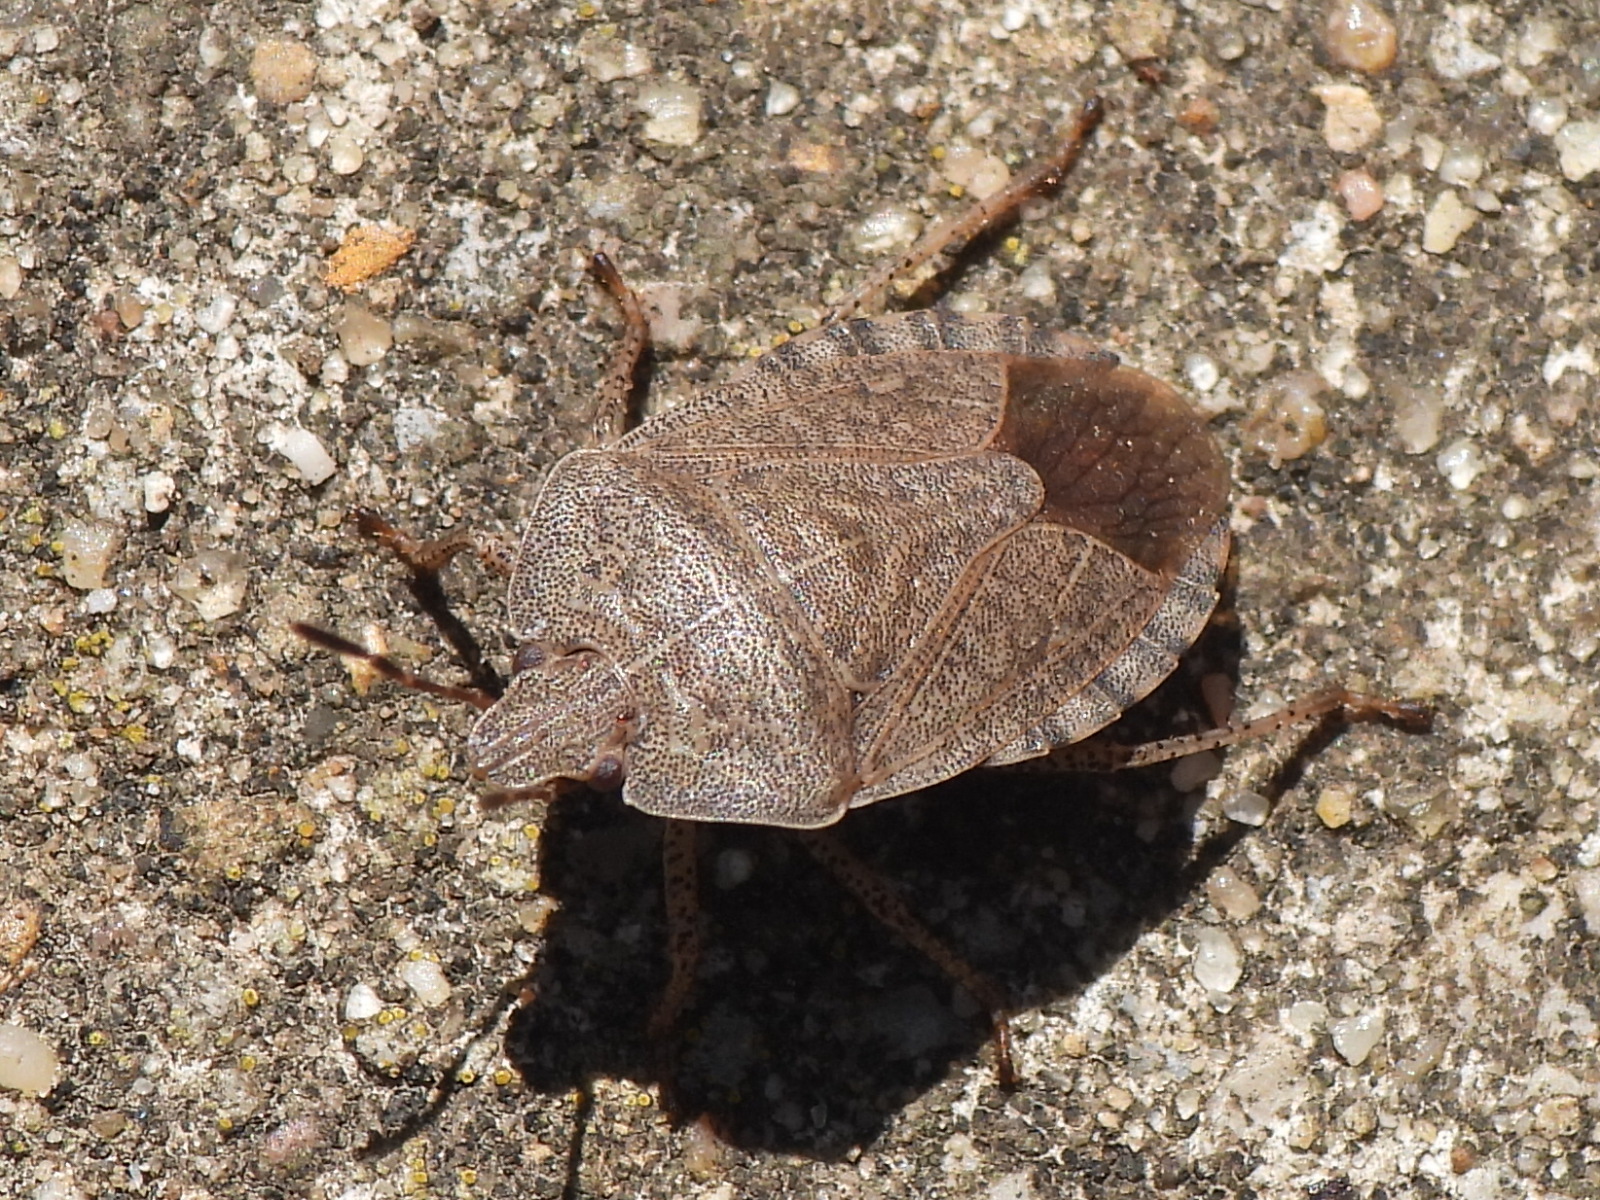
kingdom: Animalia
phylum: Arthropoda
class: Insecta
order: Hemiptera
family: Pentatomidae
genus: Menecles
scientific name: Menecles insertus
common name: Elf shoe stink bug
